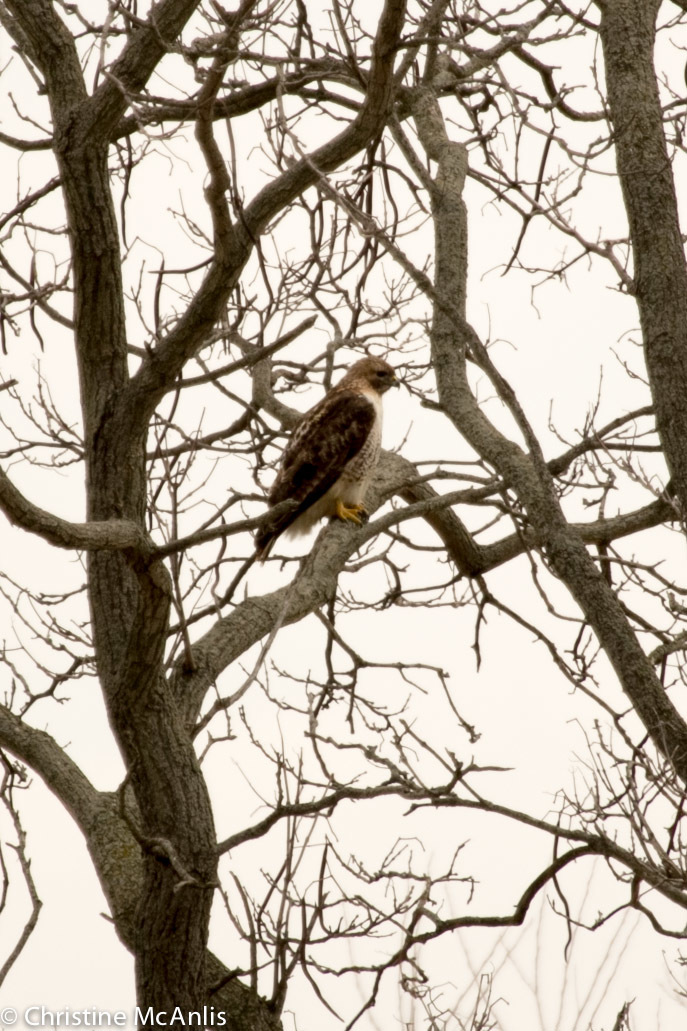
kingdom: Animalia
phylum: Chordata
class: Aves
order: Accipitriformes
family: Accipitridae
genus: Buteo
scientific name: Buteo jamaicensis
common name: Red-tailed hawk
